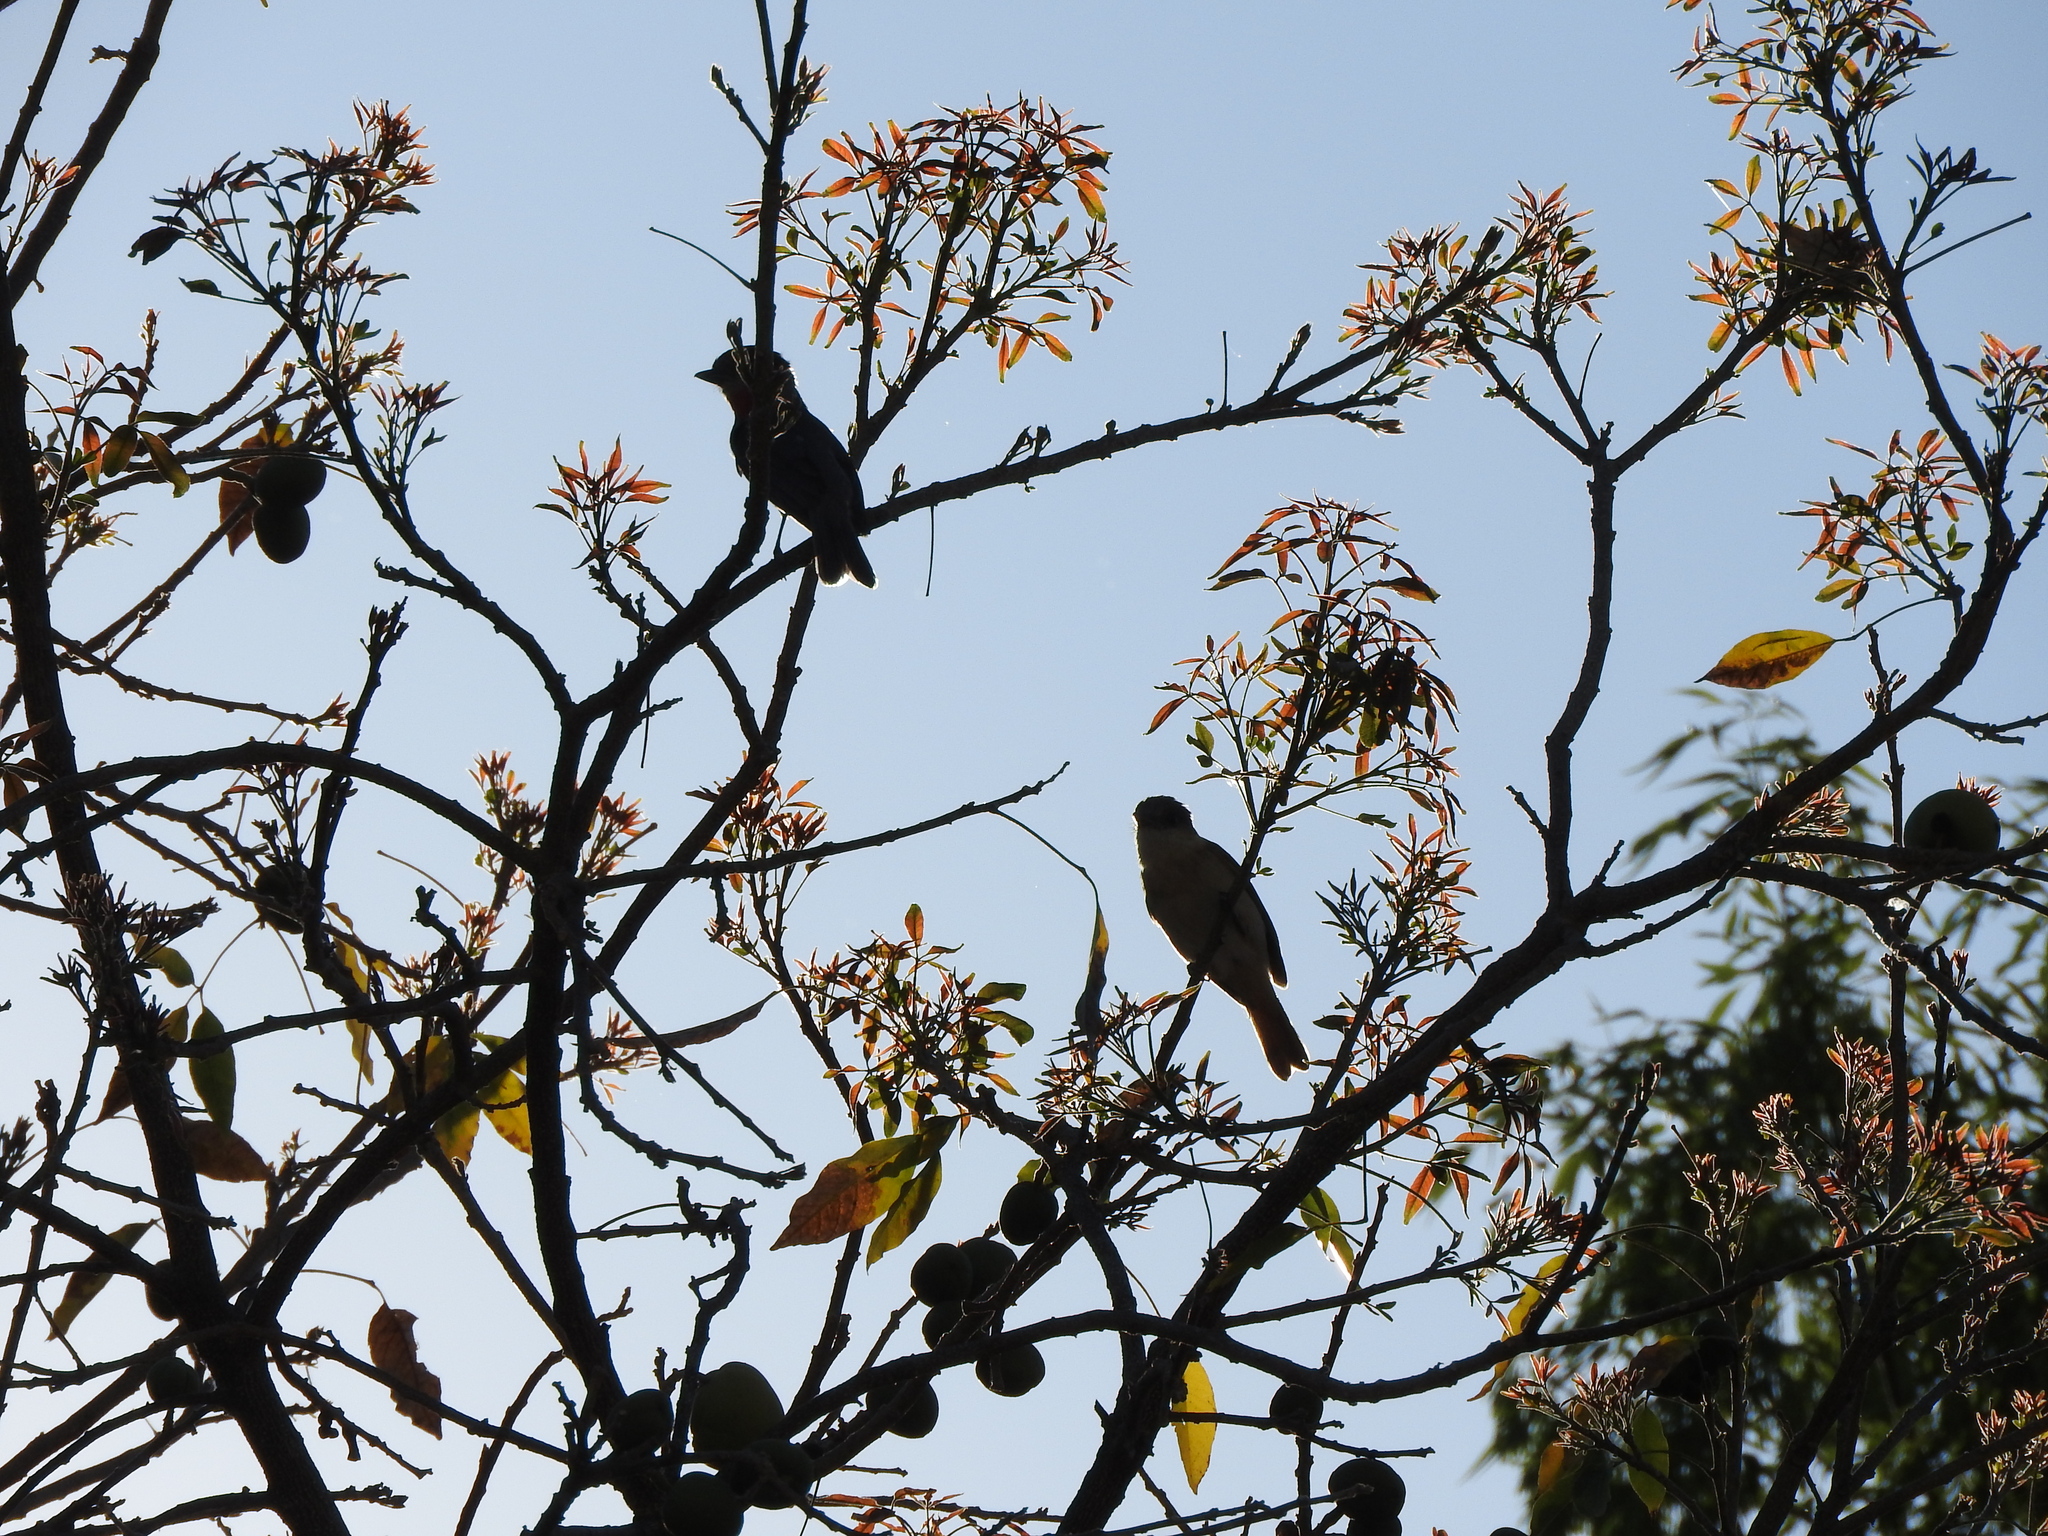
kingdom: Animalia
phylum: Chordata
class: Aves
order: Passeriformes
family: Cotingidae
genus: Pachyramphus
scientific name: Pachyramphus aglaiae
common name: Rose-throated becard
